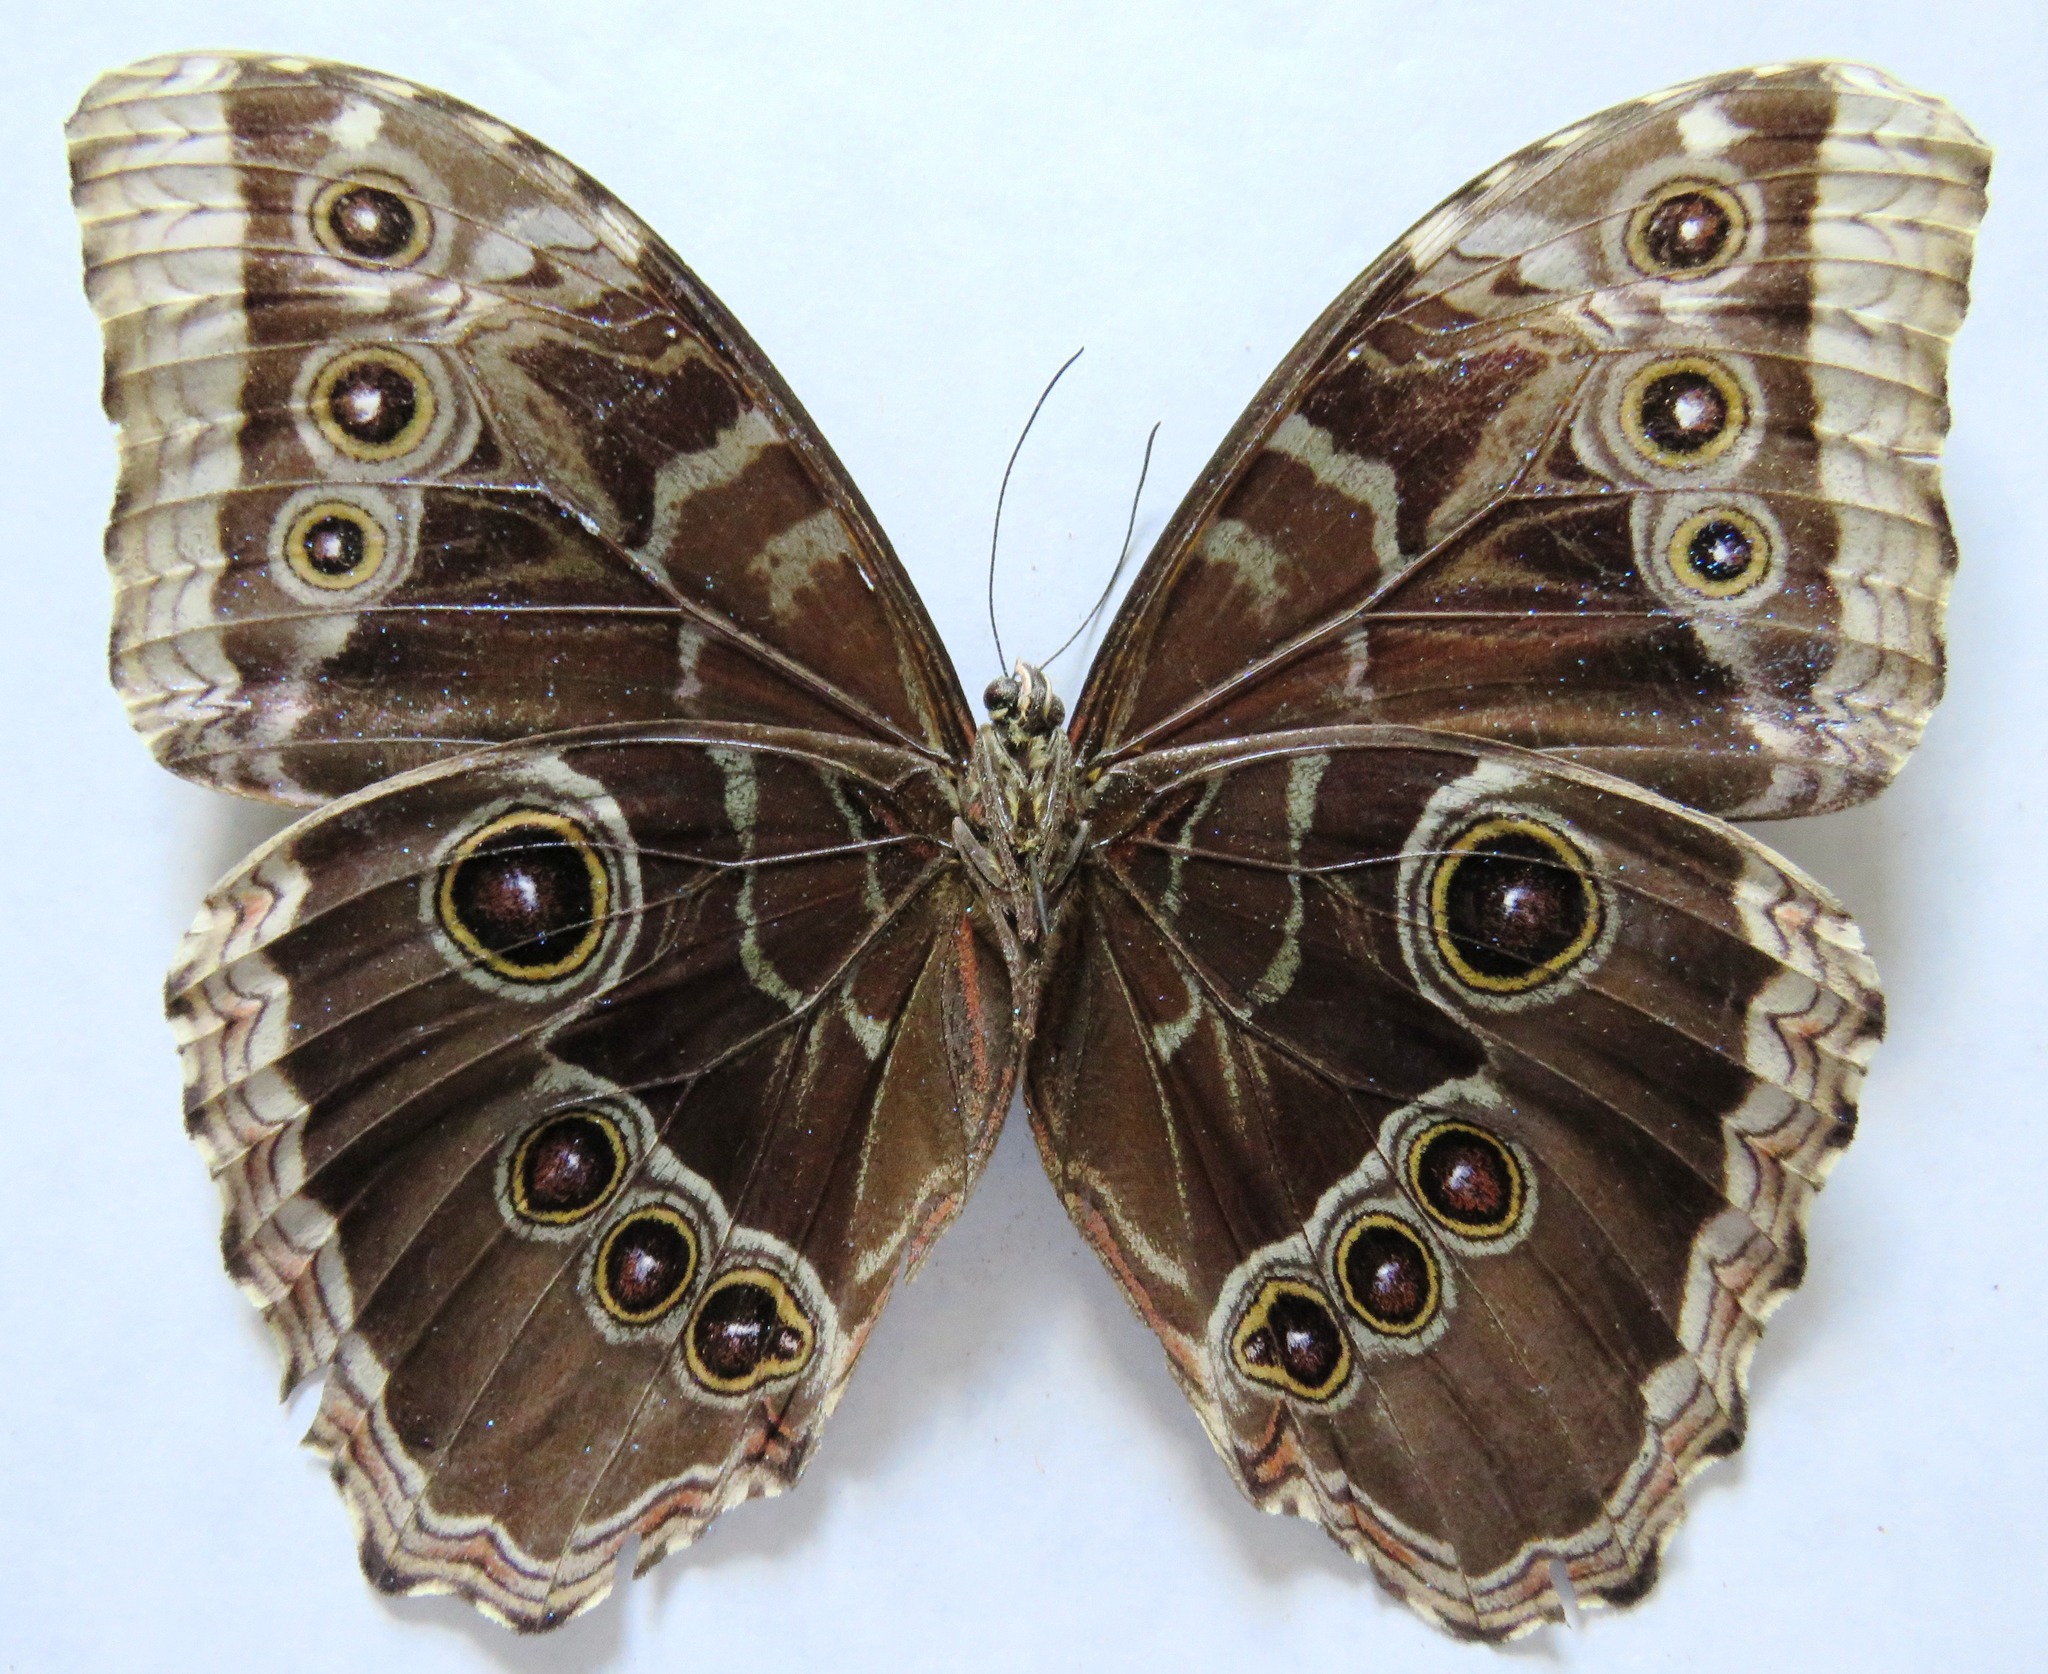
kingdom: Animalia
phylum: Arthropoda
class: Insecta
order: Lepidoptera
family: Nymphalidae
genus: Morpho
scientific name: Morpho helenor
